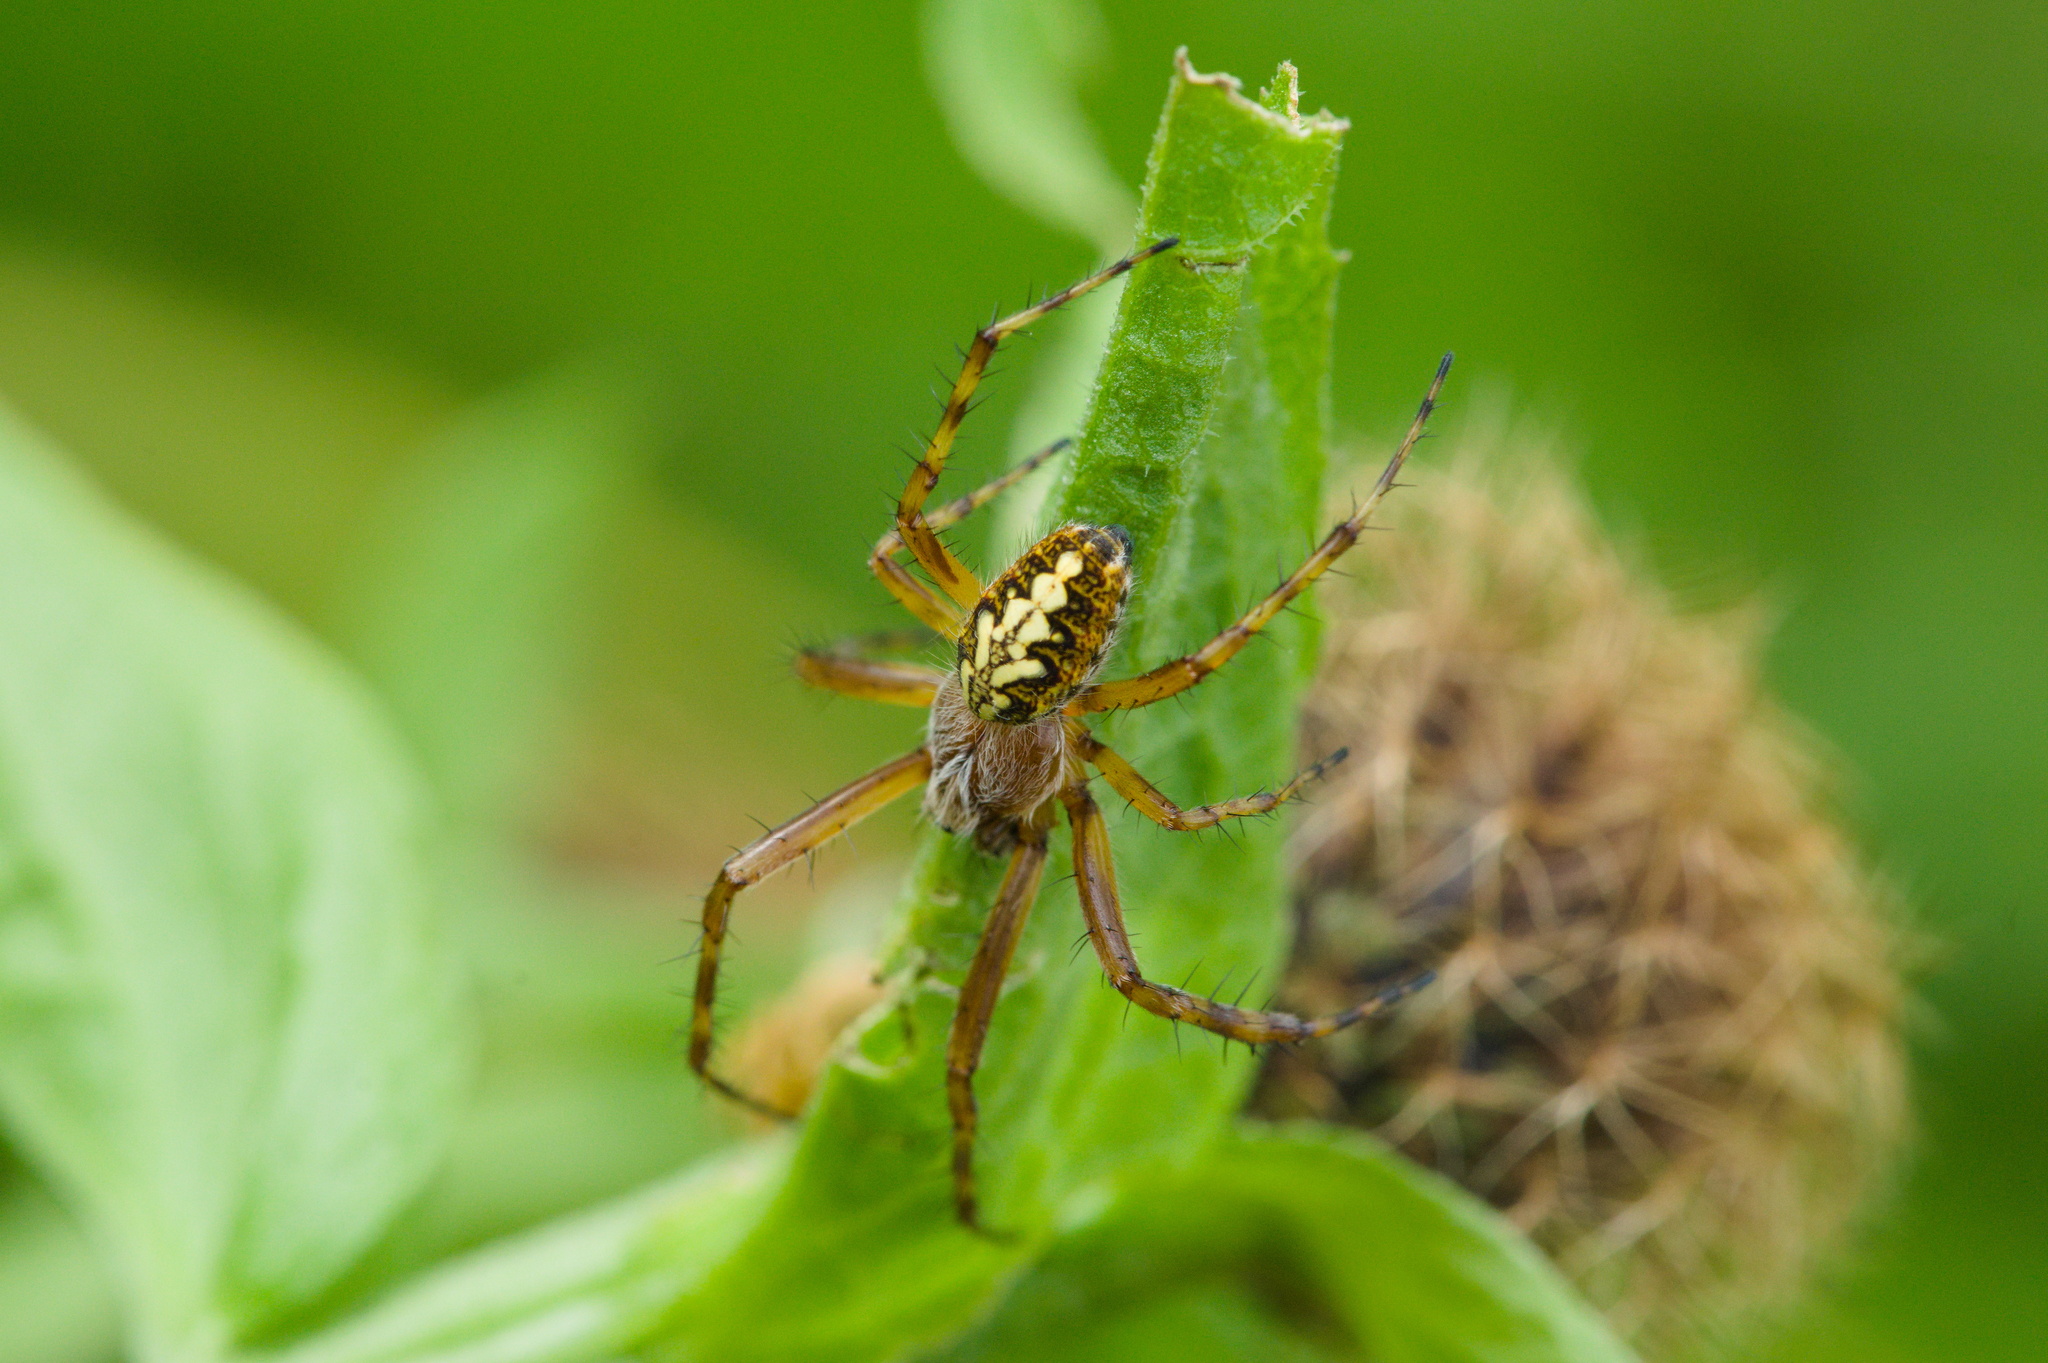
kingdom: Animalia
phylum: Arthropoda
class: Arachnida
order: Araneae
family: Araneidae
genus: Aculepeira
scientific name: Aculepeira ceropegia
